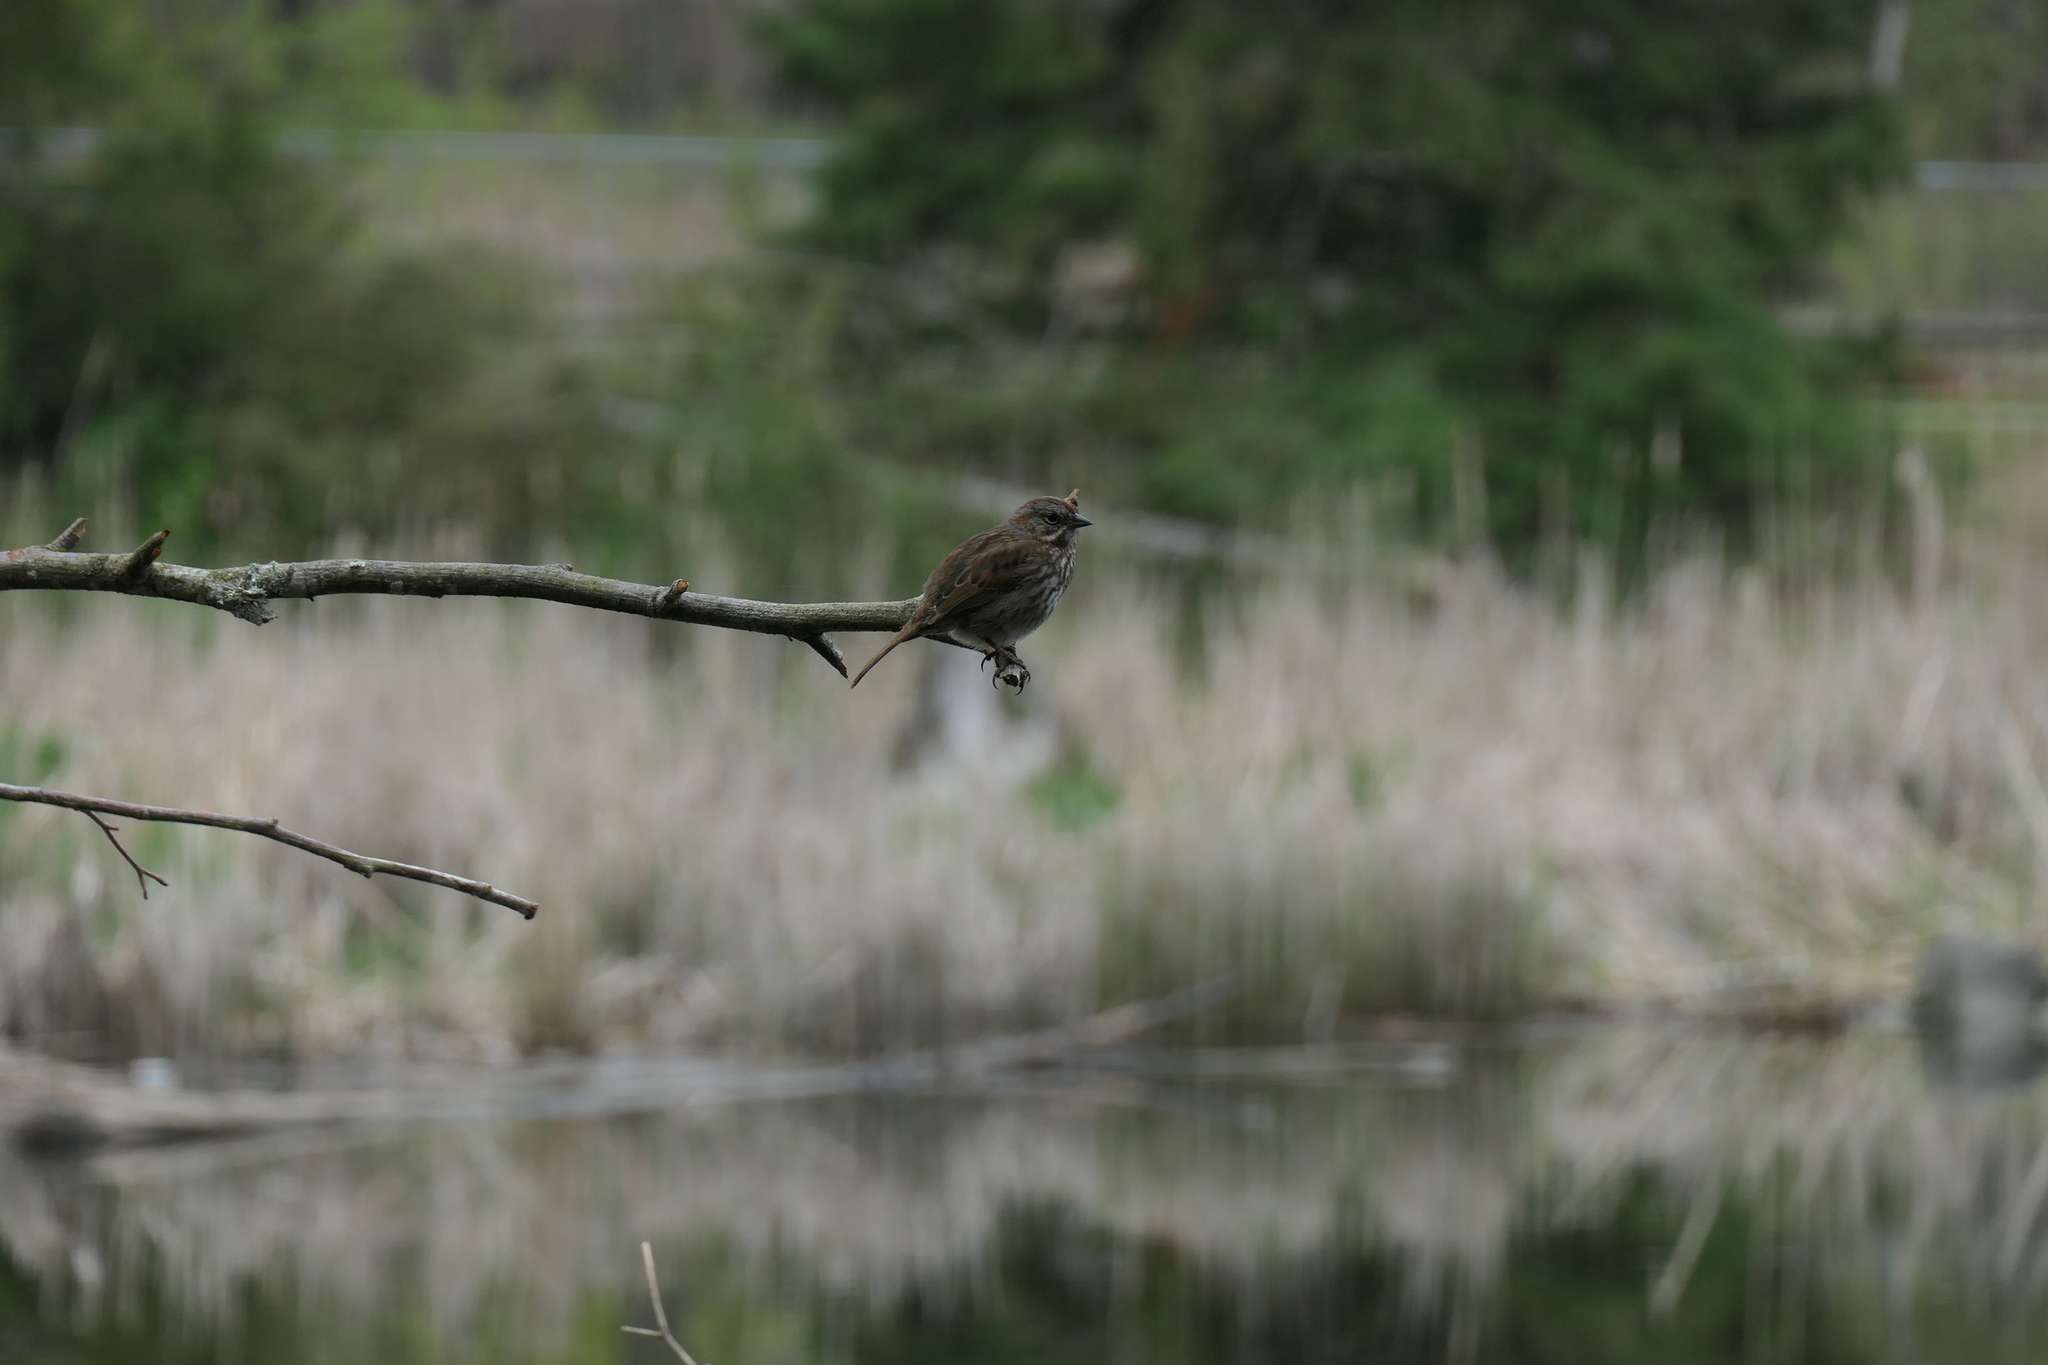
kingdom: Animalia
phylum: Chordata
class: Aves
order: Passeriformes
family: Passerellidae
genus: Melospiza
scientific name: Melospiza melodia
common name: Song sparrow
